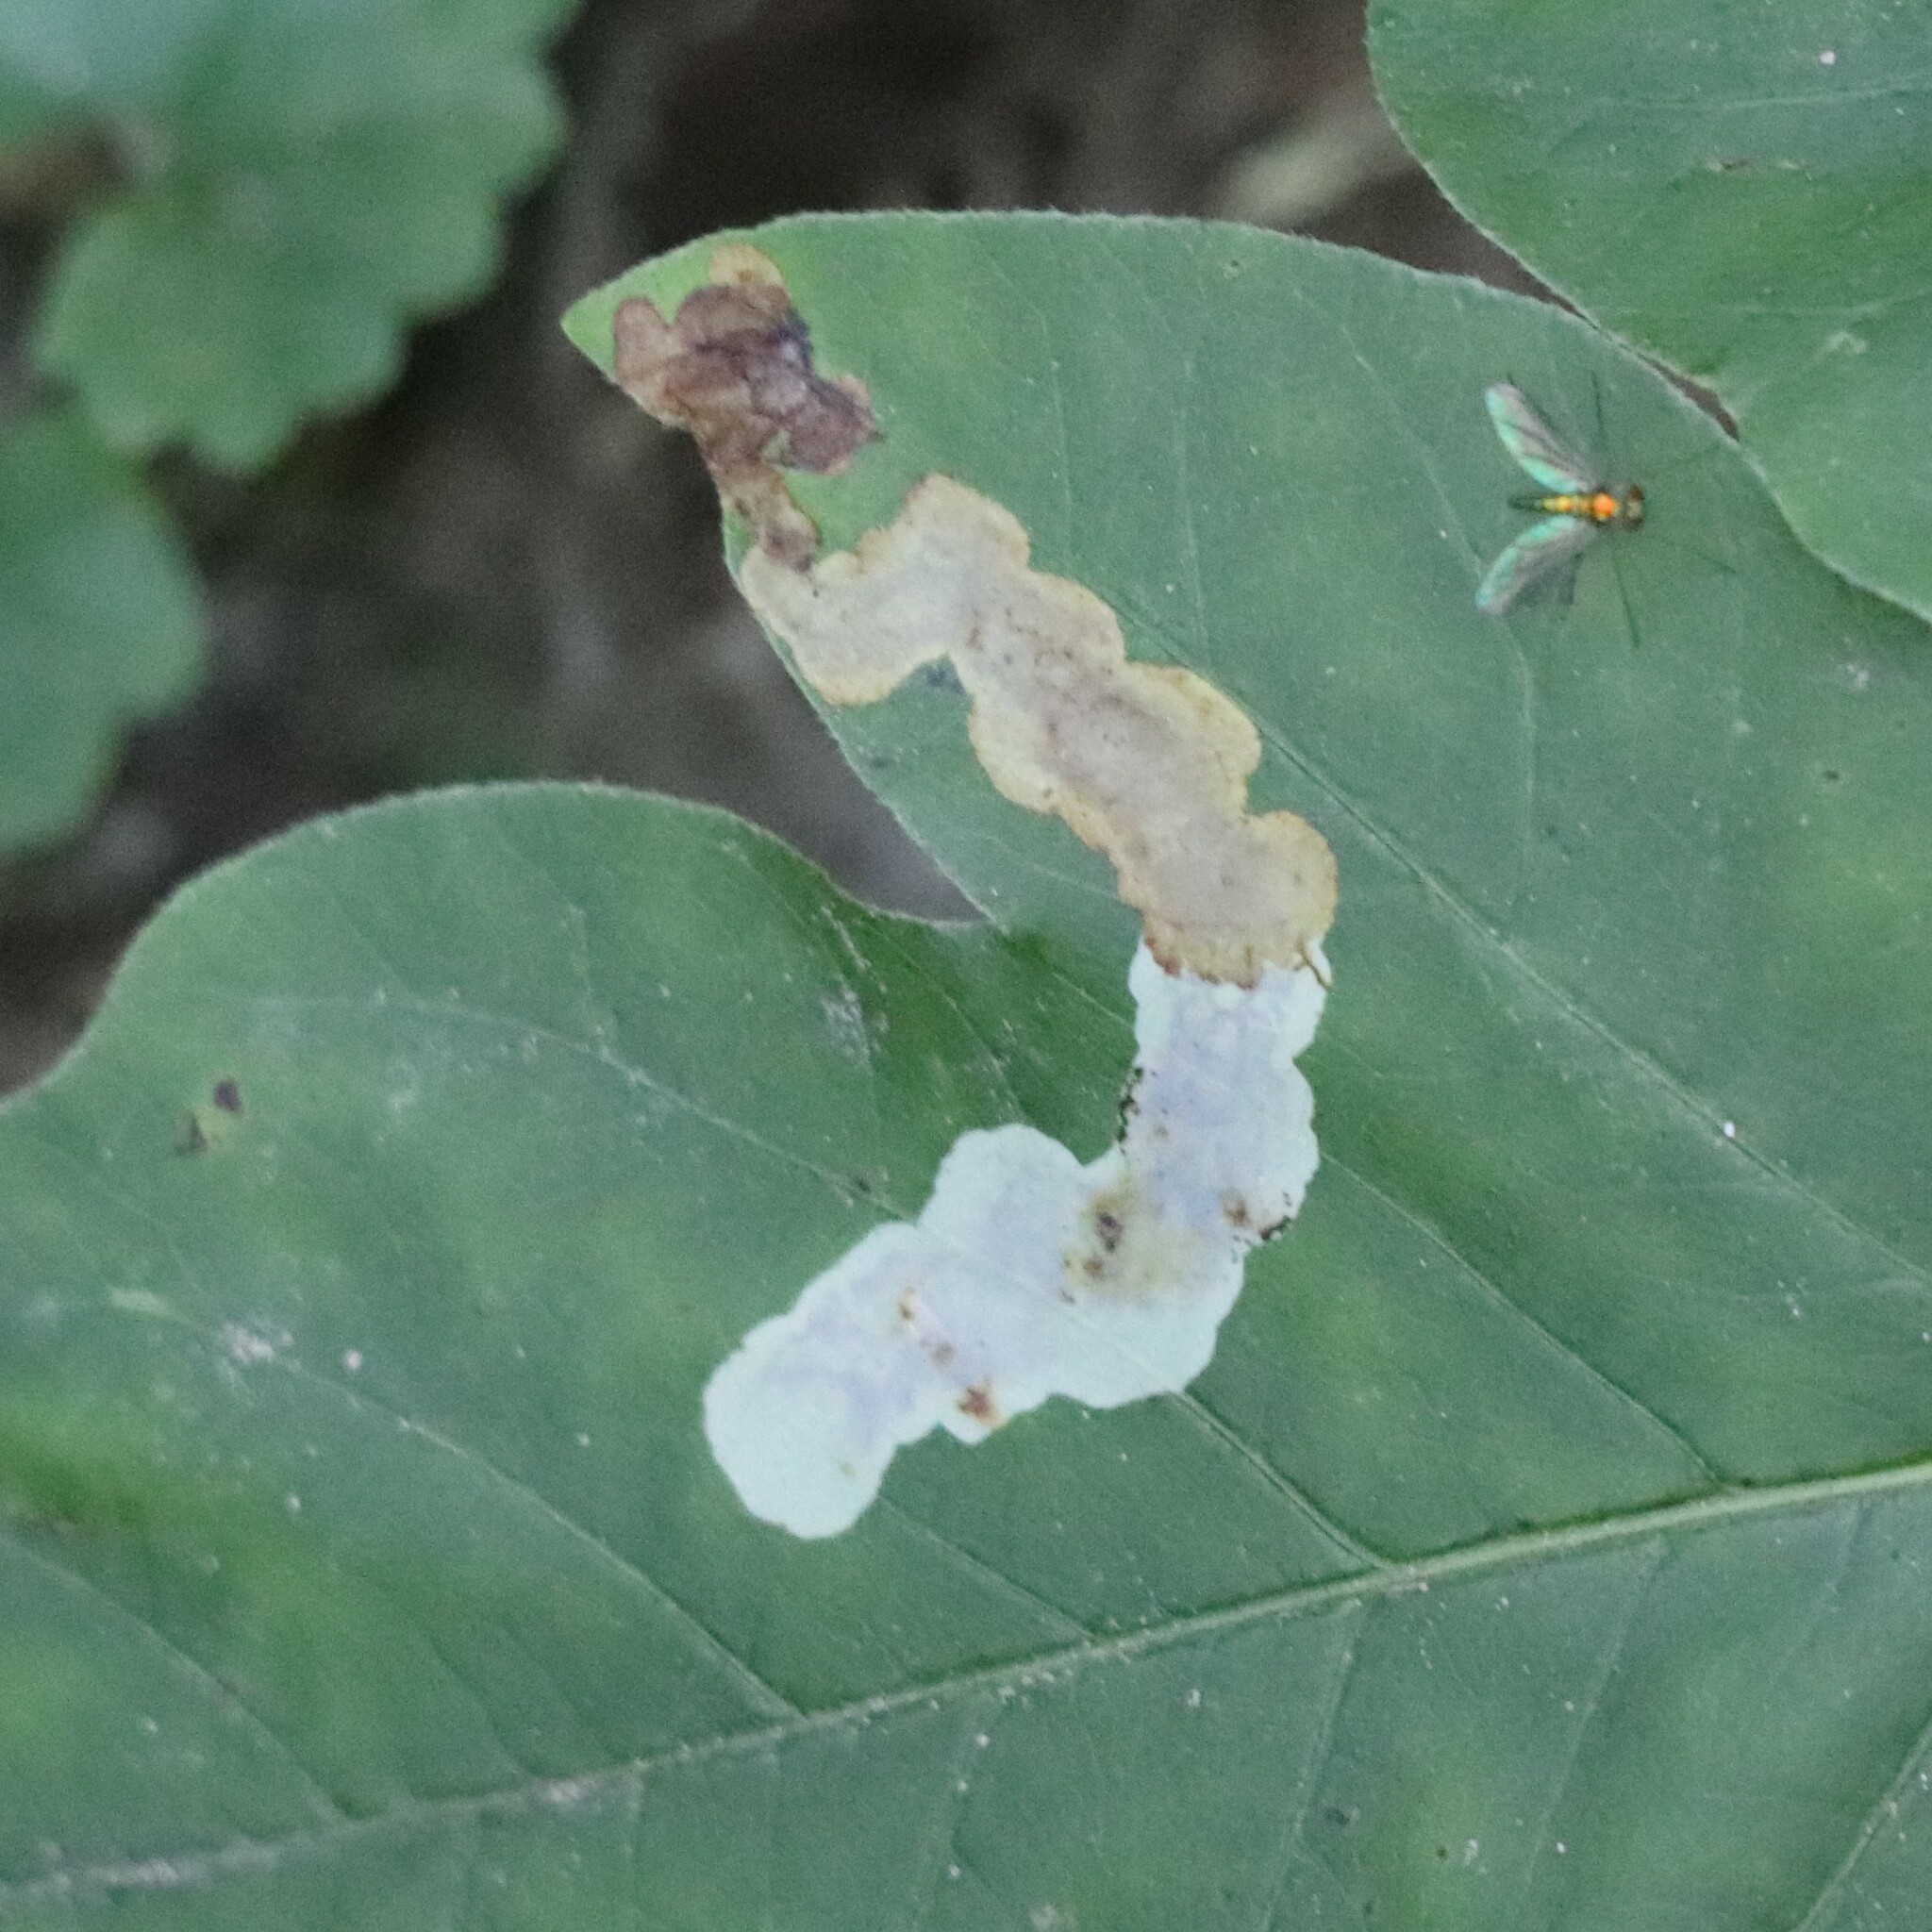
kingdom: Animalia
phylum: Arthropoda
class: Insecta
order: Lepidoptera
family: Gracillariidae
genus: Cameraria
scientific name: Cameraria guttifinitella
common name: Poison ivy leaf-miner moth
